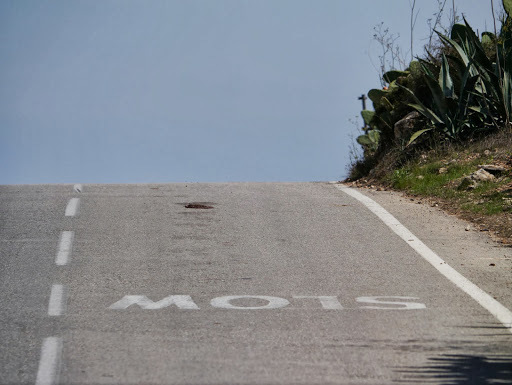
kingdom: Animalia
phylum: Chordata
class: Mammalia
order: Erinaceomorpha
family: Erinaceidae
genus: Atelerix
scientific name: Atelerix algirus
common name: North african hedgehog
